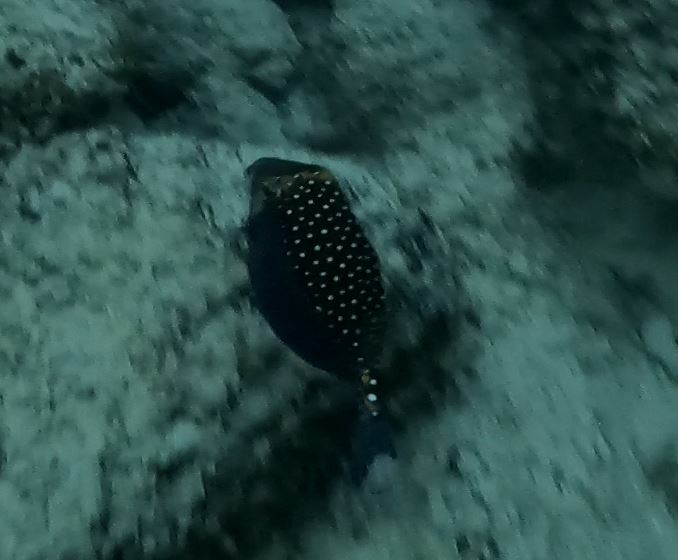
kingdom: Animalia
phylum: Chordata
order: Tetraodontiformes
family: Ostraciidae
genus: Ostracion
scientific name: Ostracion meleagris
